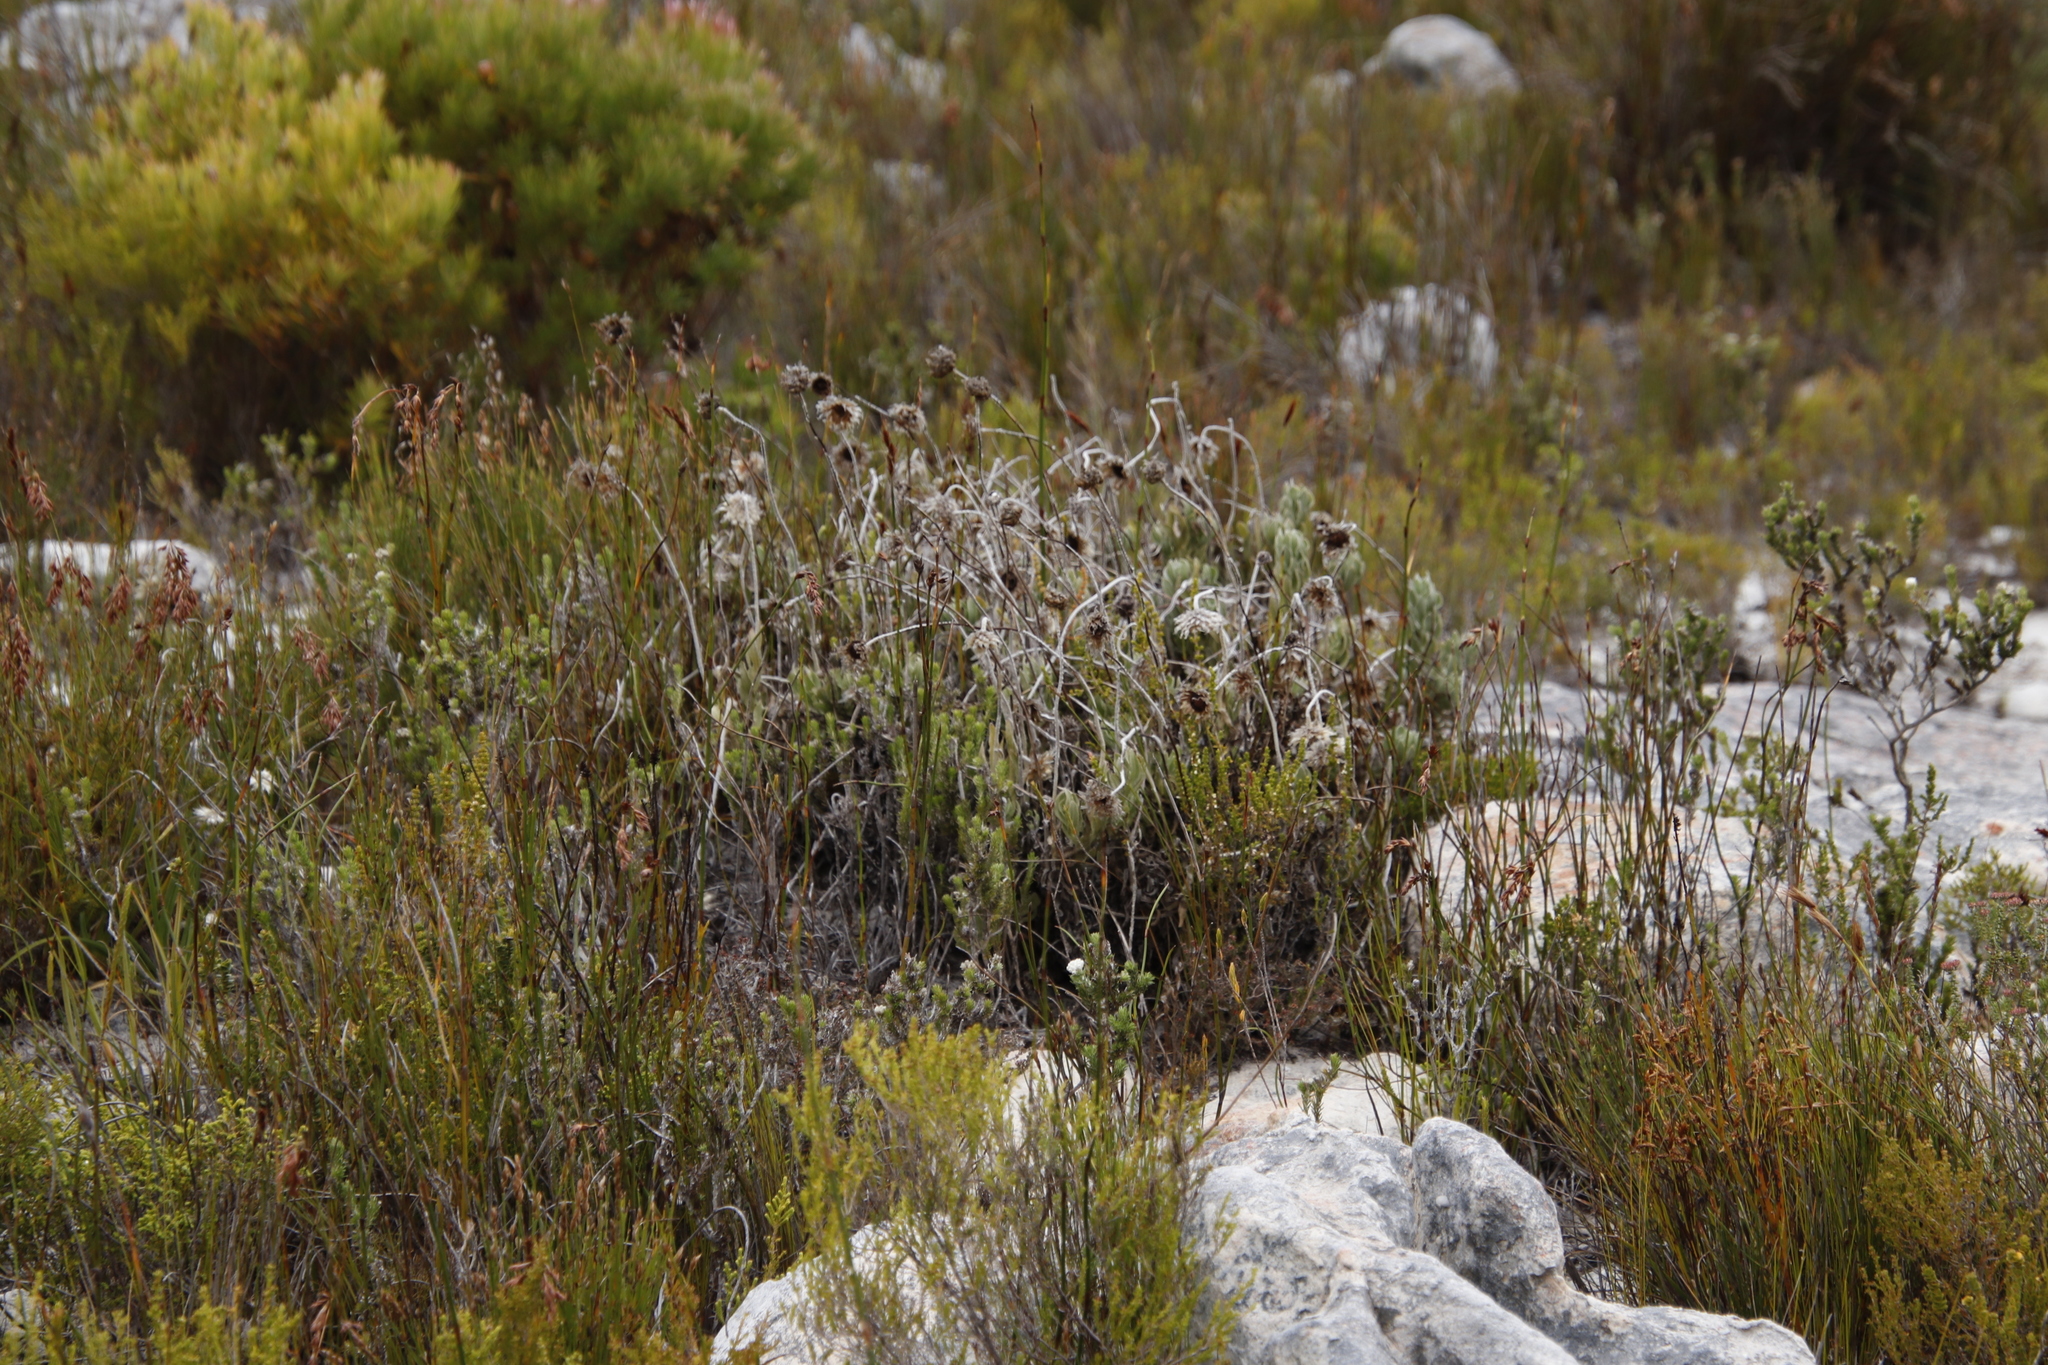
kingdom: Plantae
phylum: Tracheophyta
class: Magnoliopsida
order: Asterales
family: Asteraceae
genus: Syncarpha
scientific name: Syncarpha speciosissima
